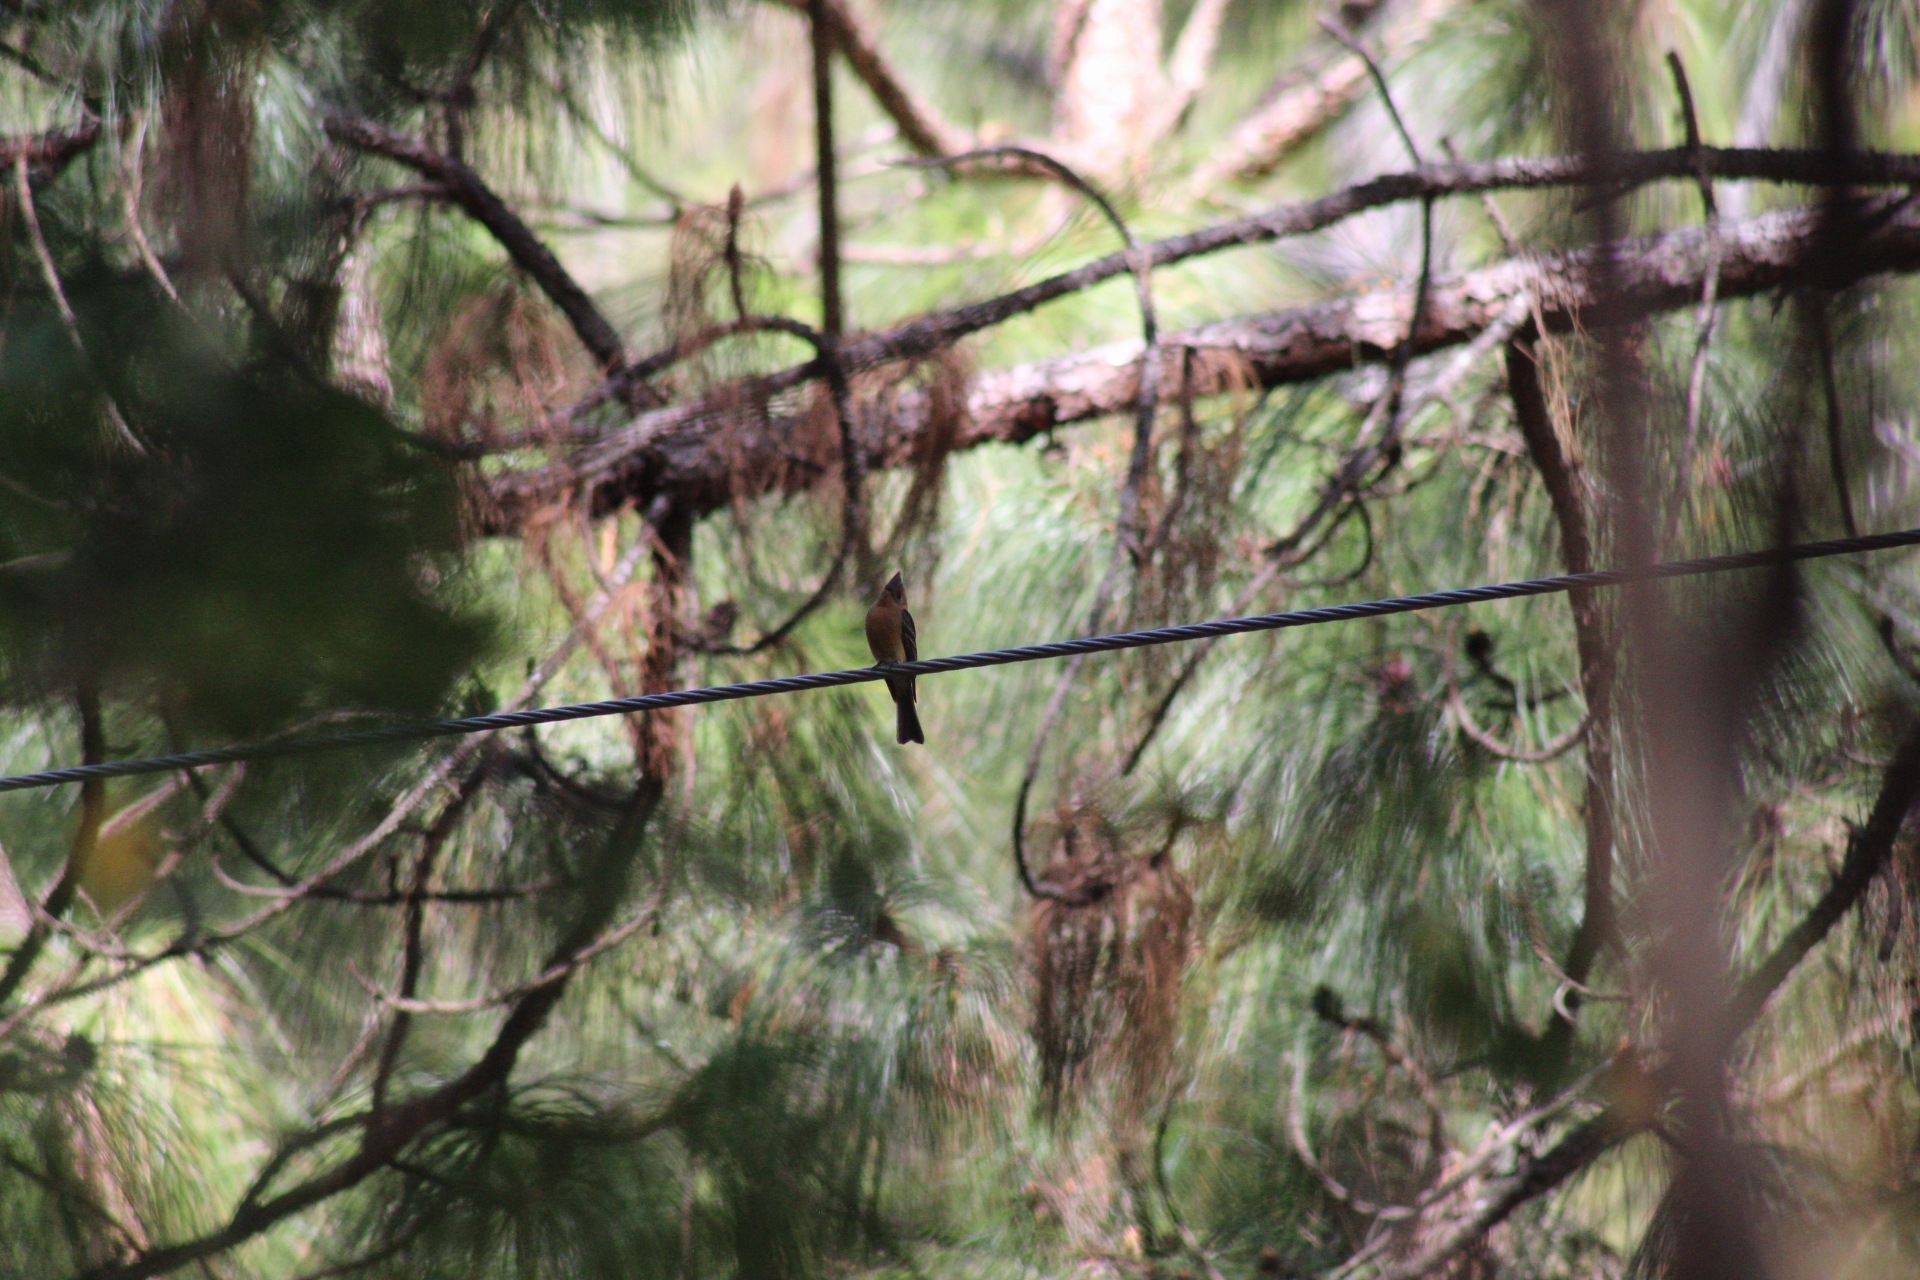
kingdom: Animalia
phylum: Chordata
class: Aves
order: Passeriformes
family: Tyrannidae
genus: Mitrephanes
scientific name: Mitrephanes phaeocercus
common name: Northern tufted flycatcher
